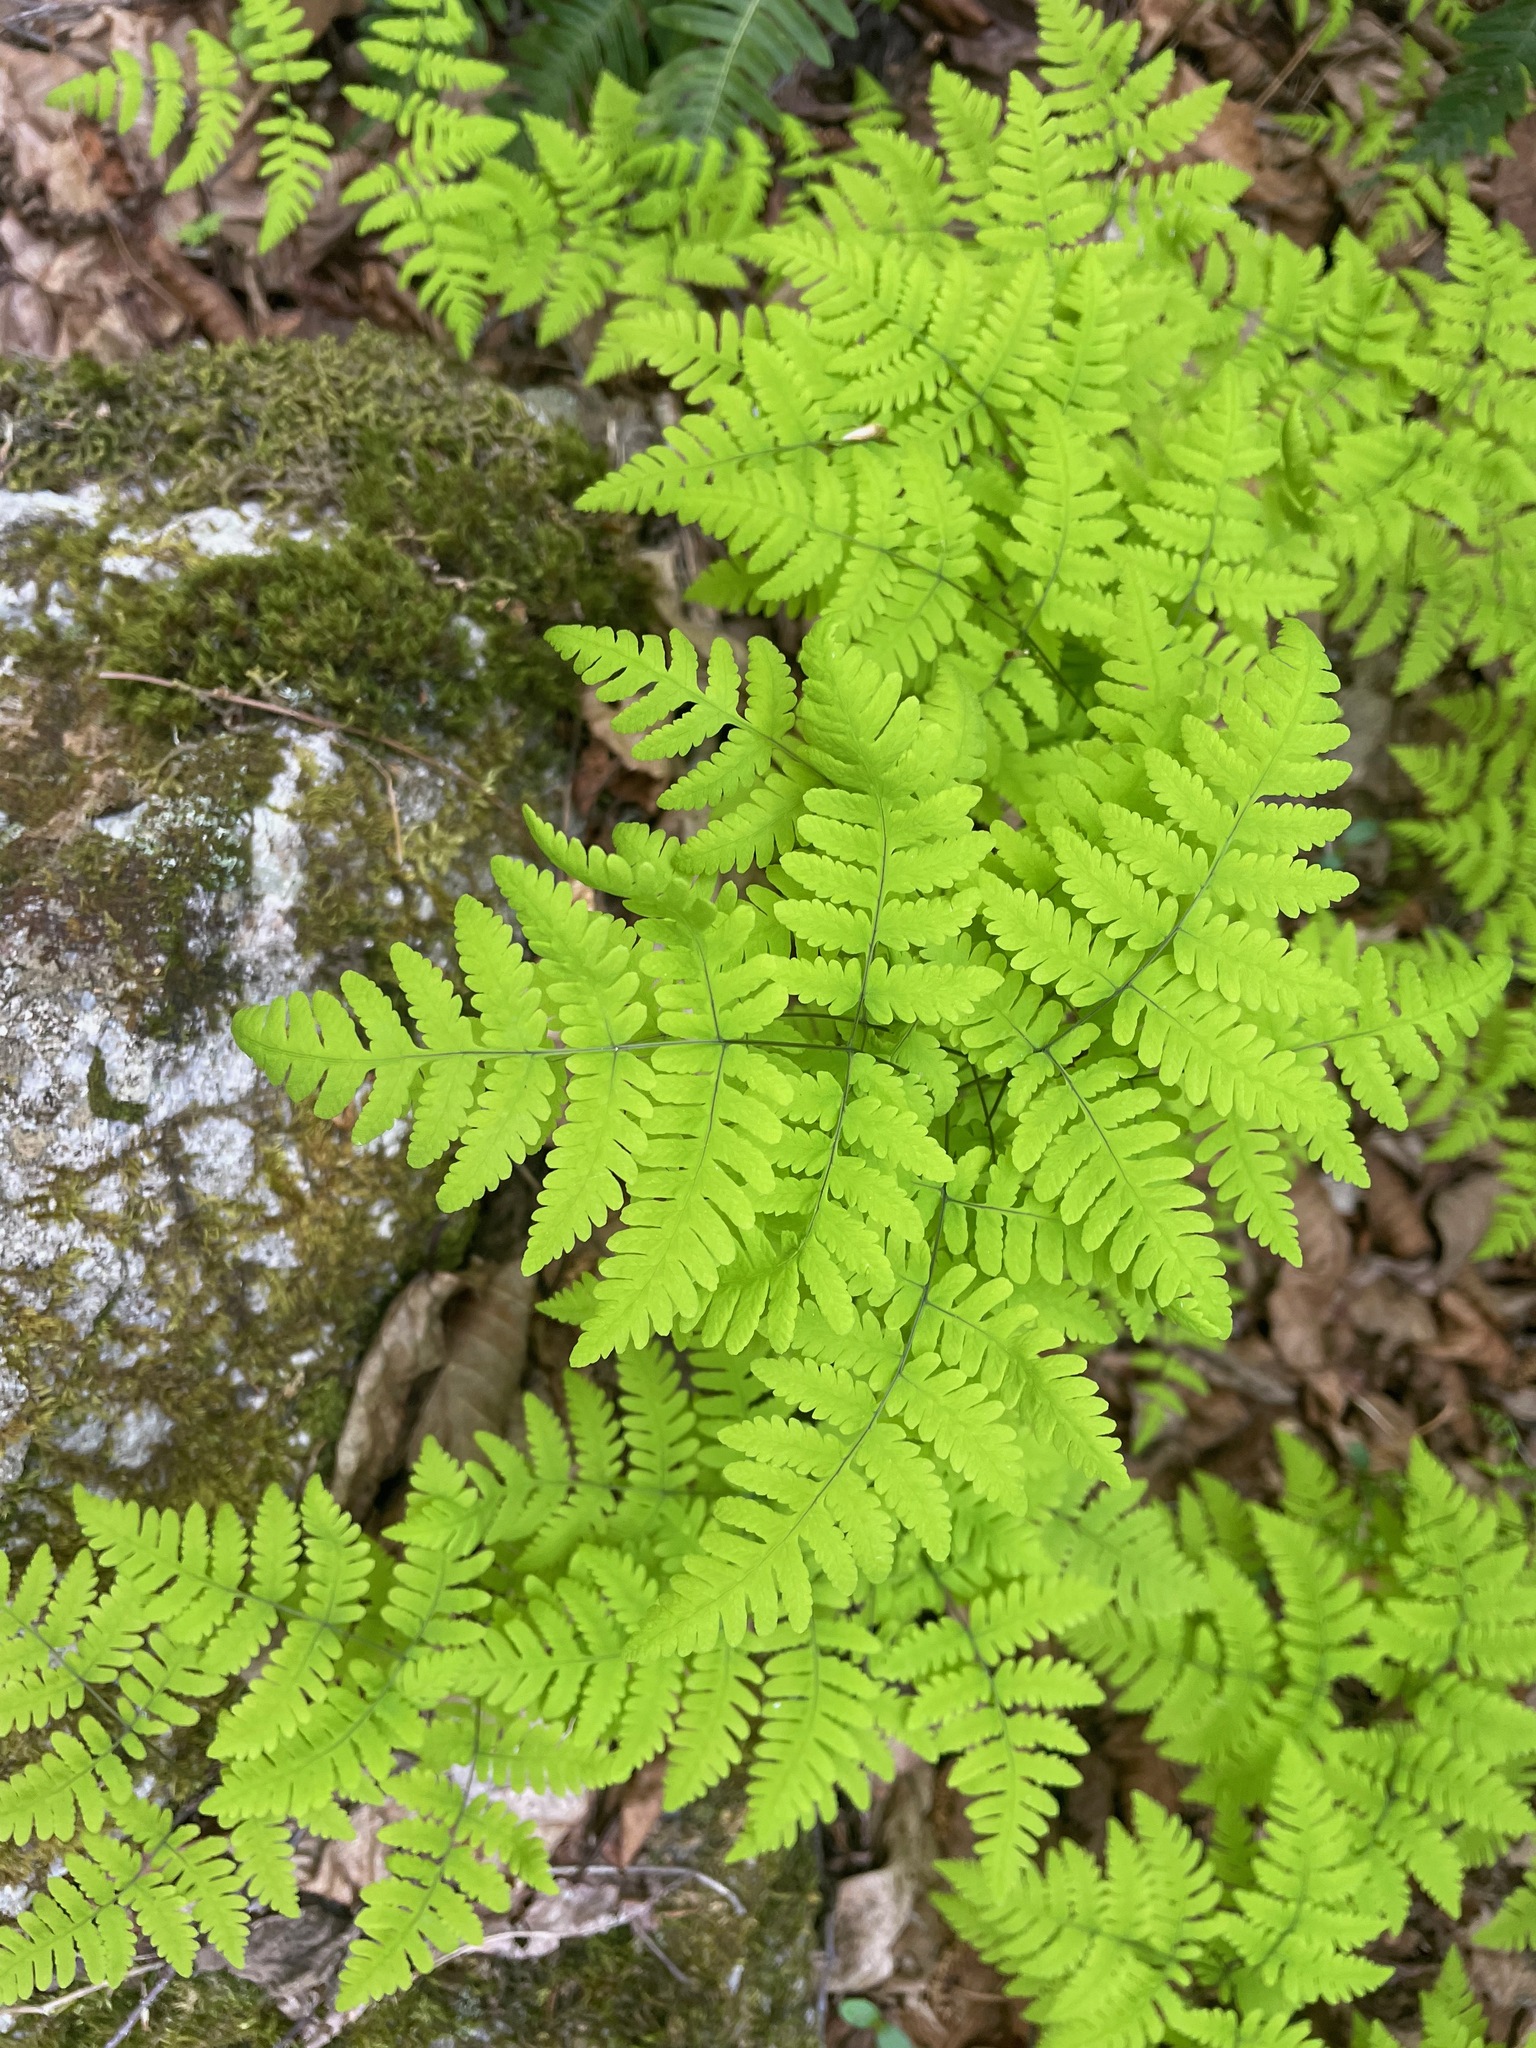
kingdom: Plantae
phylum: Tracheophyta
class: Polypodiopsida
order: Polypodiales
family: Cystopteridaceae
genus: Gymnocarpium
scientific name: Gymnocarpium dryopteris
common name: Oak fern
